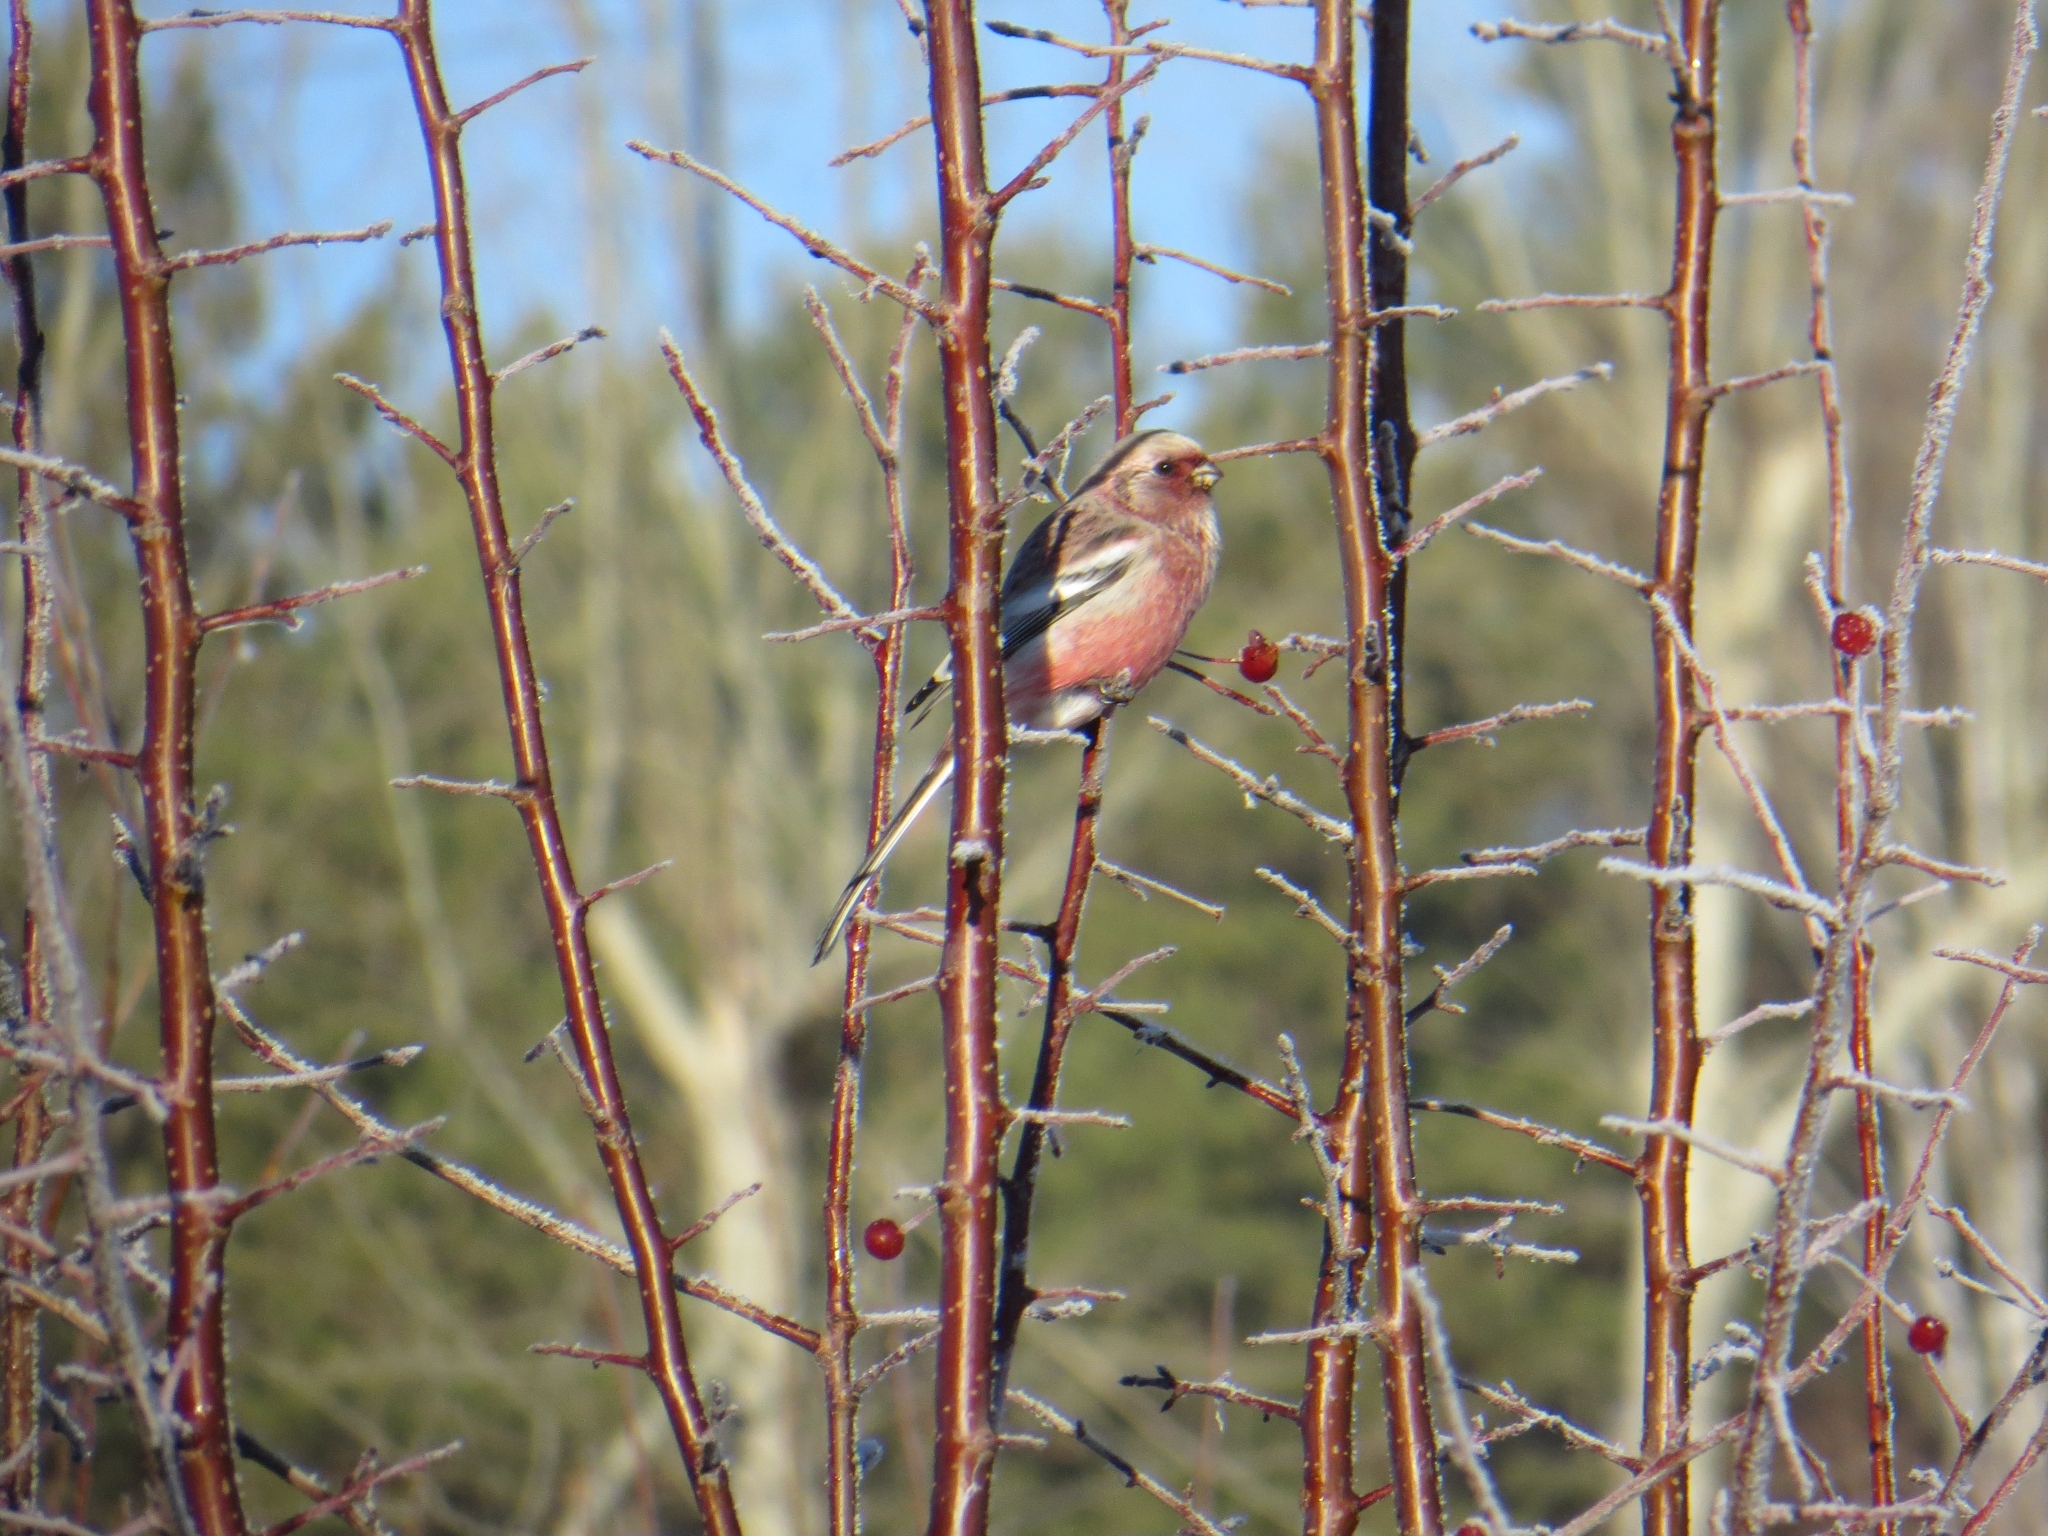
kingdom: Animalia
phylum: Chordata
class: Aves
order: Passeriformes
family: Fringillidae
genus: Carpodacus
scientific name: Carpodacus sibiricus
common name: Long-tailed rosefinch
